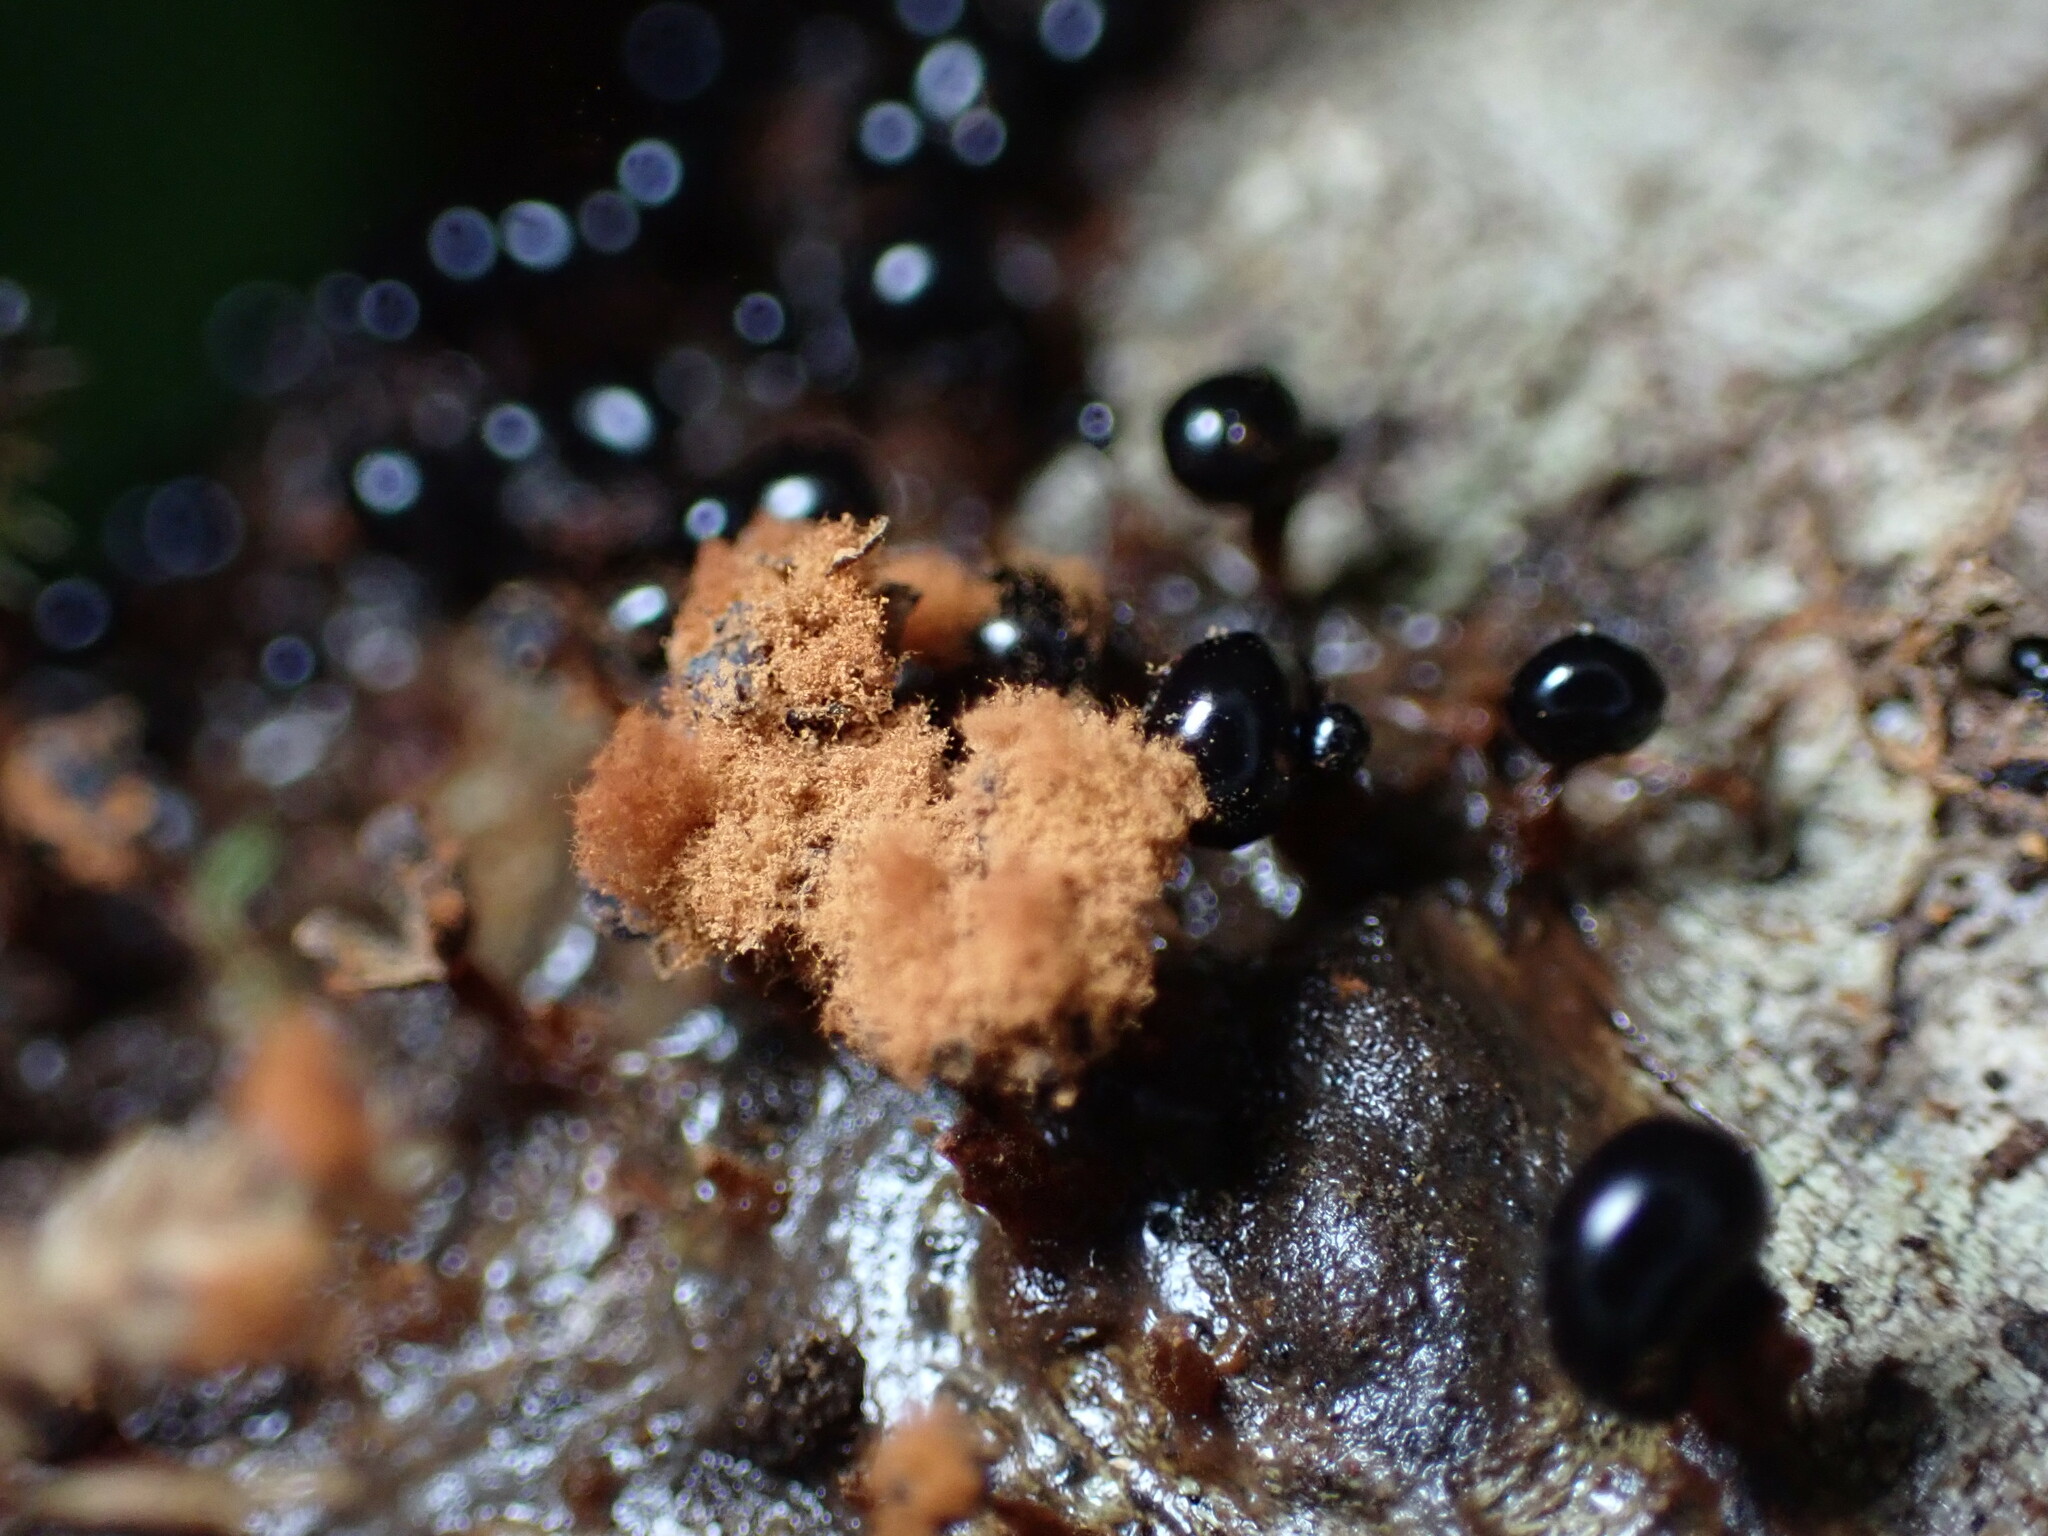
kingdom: Protozoa
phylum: Mycetozoa
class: Myxomycetes
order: Trichiales
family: Trichiaceae
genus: Metatrichia
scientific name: Metatrichia floriformis
